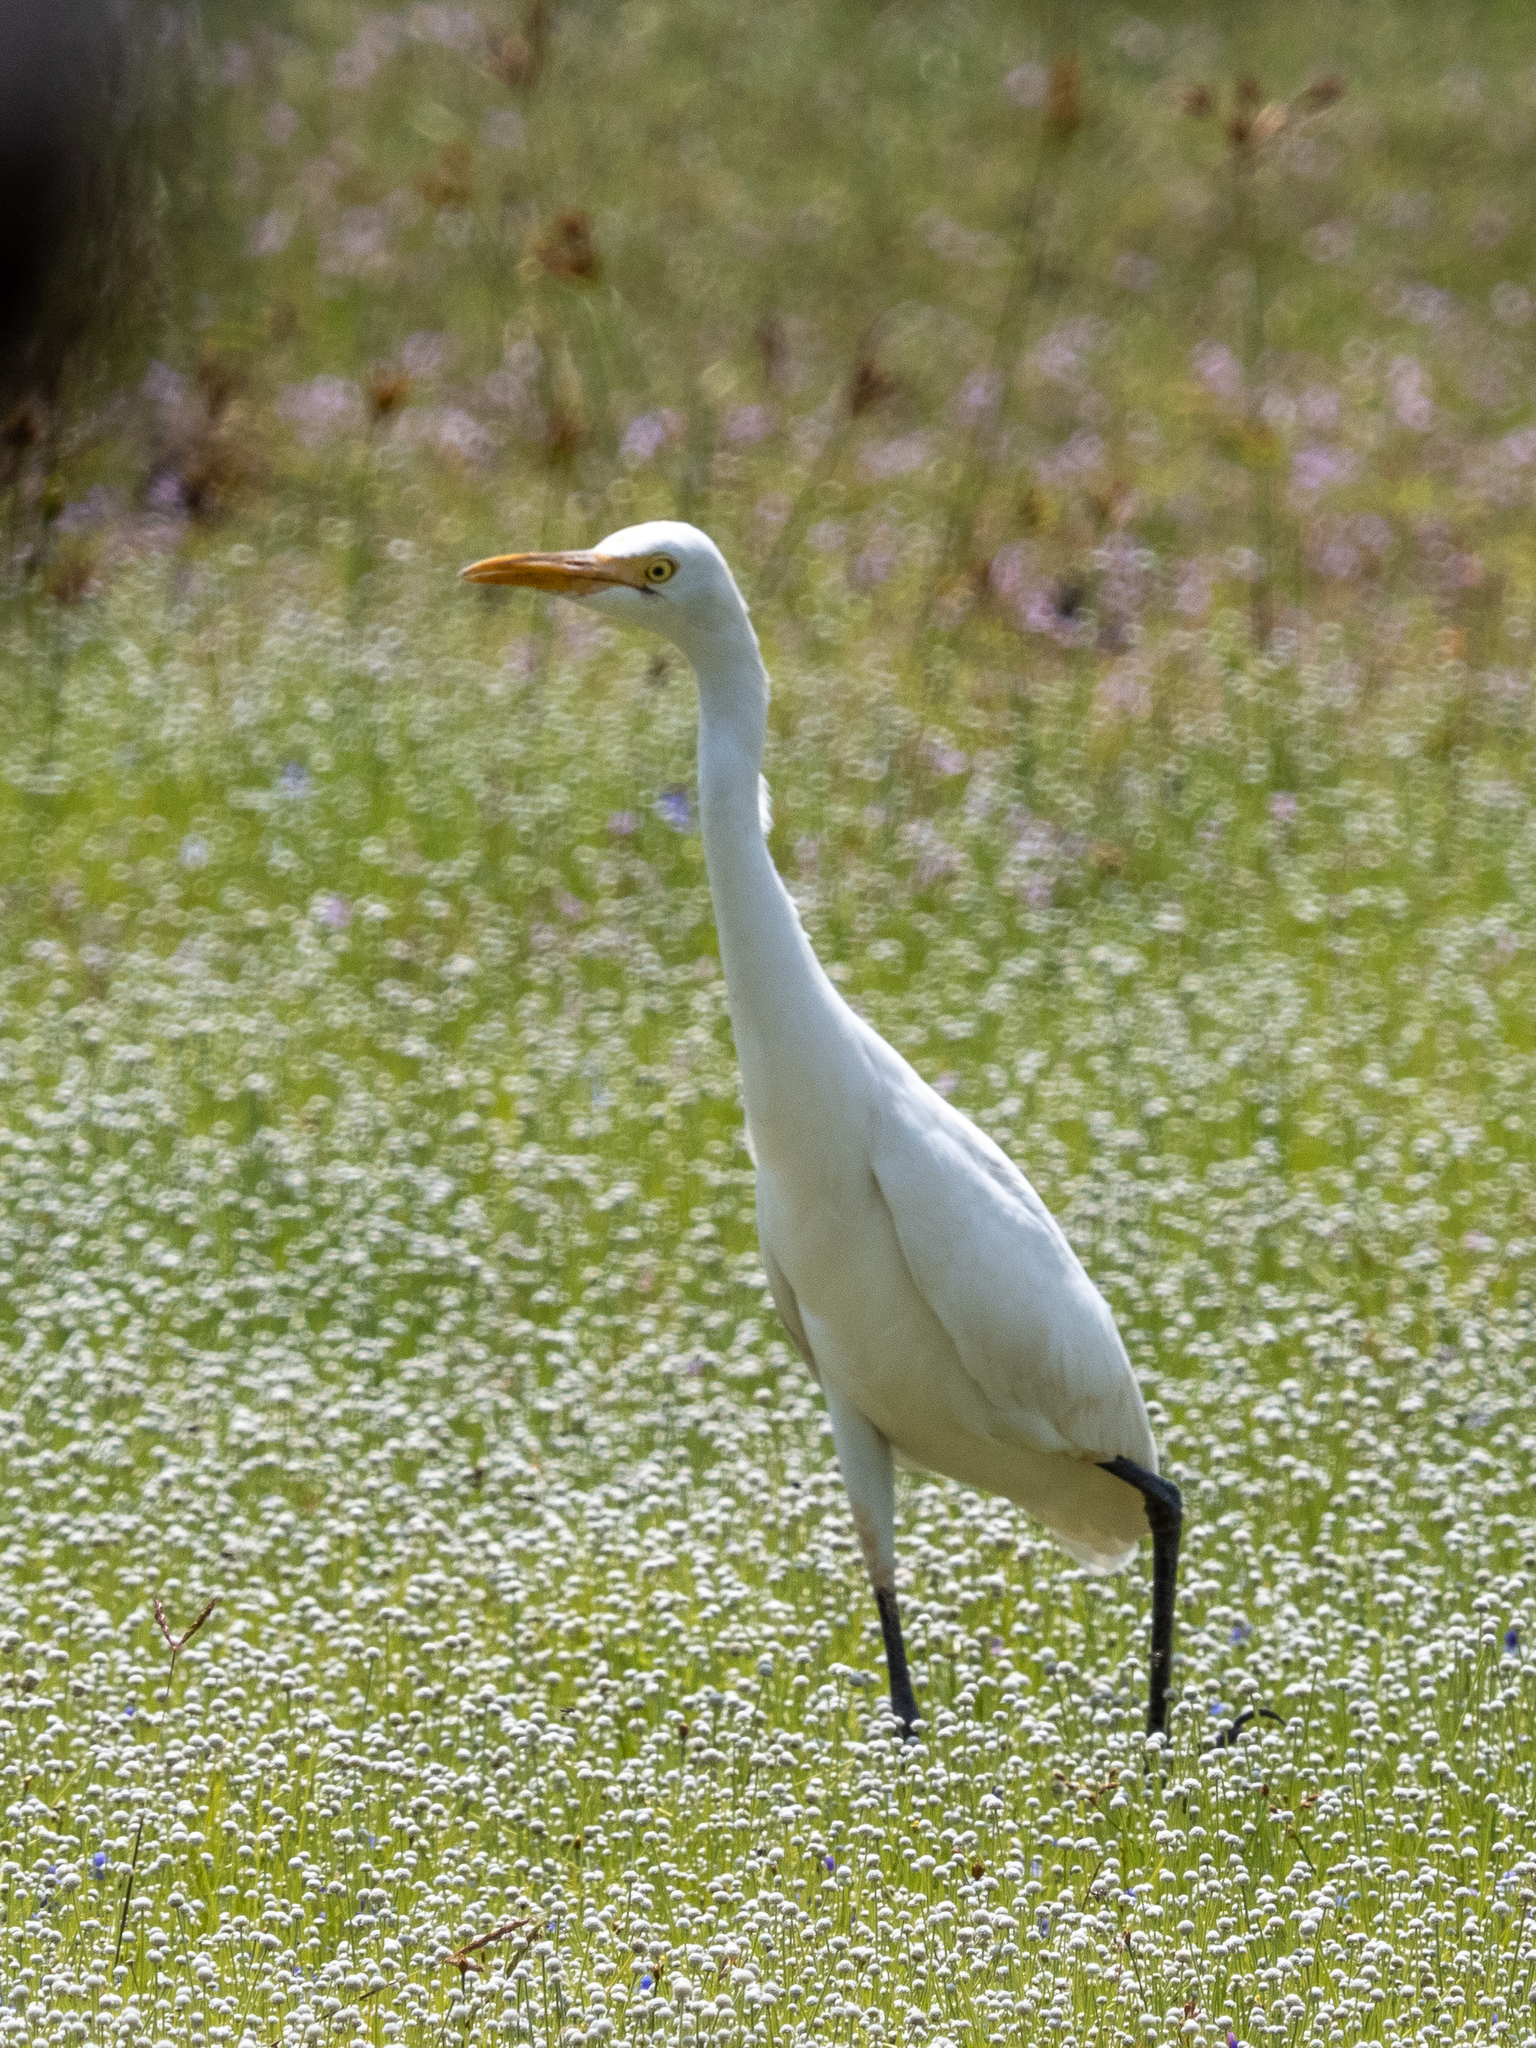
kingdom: Animalia
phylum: Chordata
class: Aves
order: Pelecaniformes
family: Ardeidae
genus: Bubulcus
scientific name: Bubulcus coromandus
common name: Eastern cattle egret
